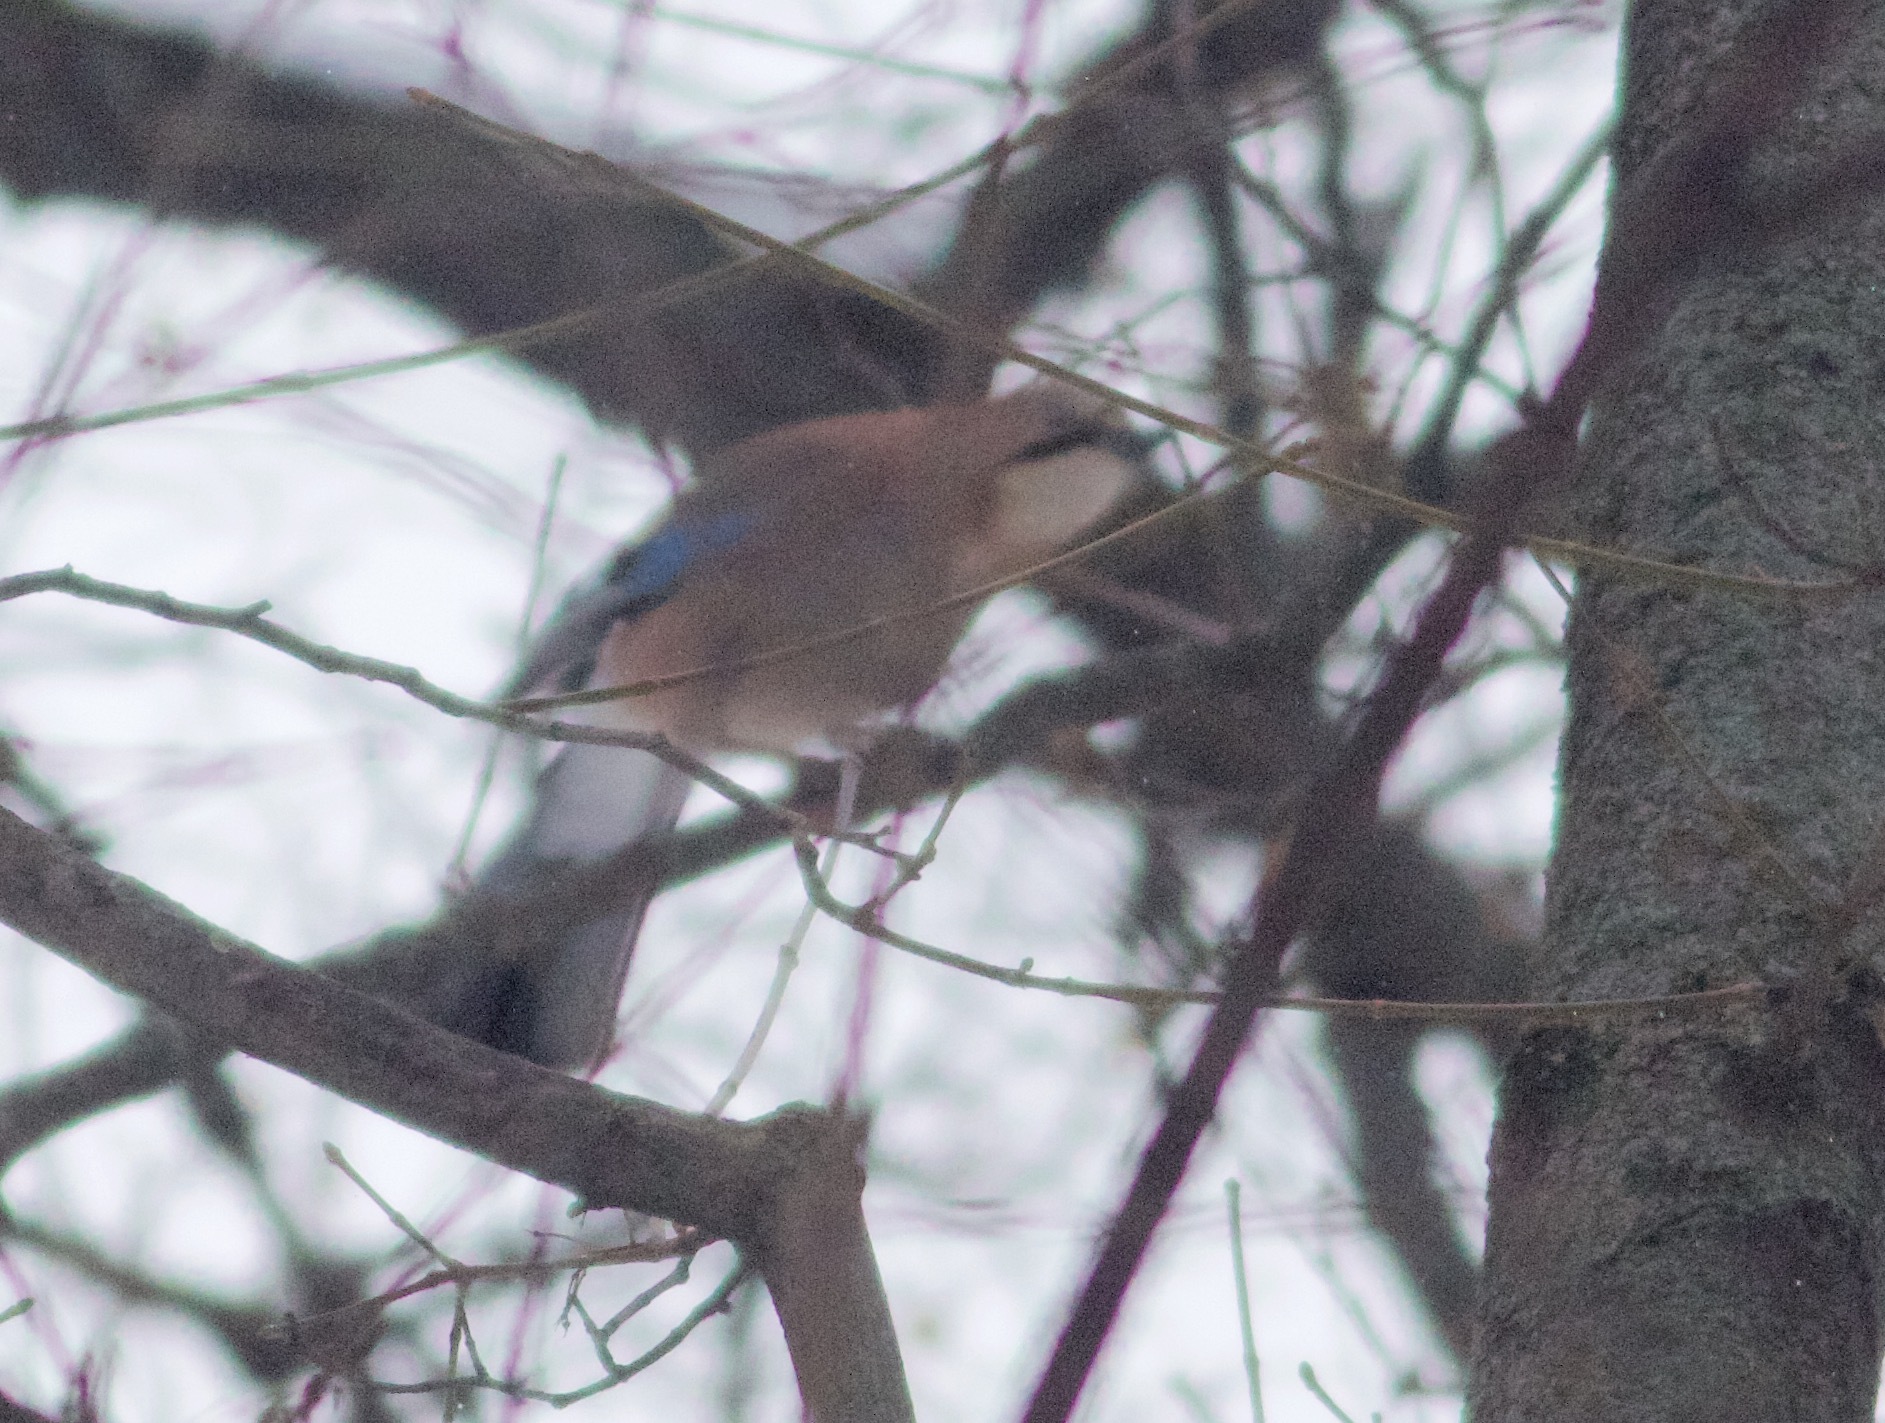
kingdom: Animalia
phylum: Chordata
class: Aves
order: Passeriformes
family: Corvidae
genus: Garrulus
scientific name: Garrulus glandarius
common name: Eurasian jay
